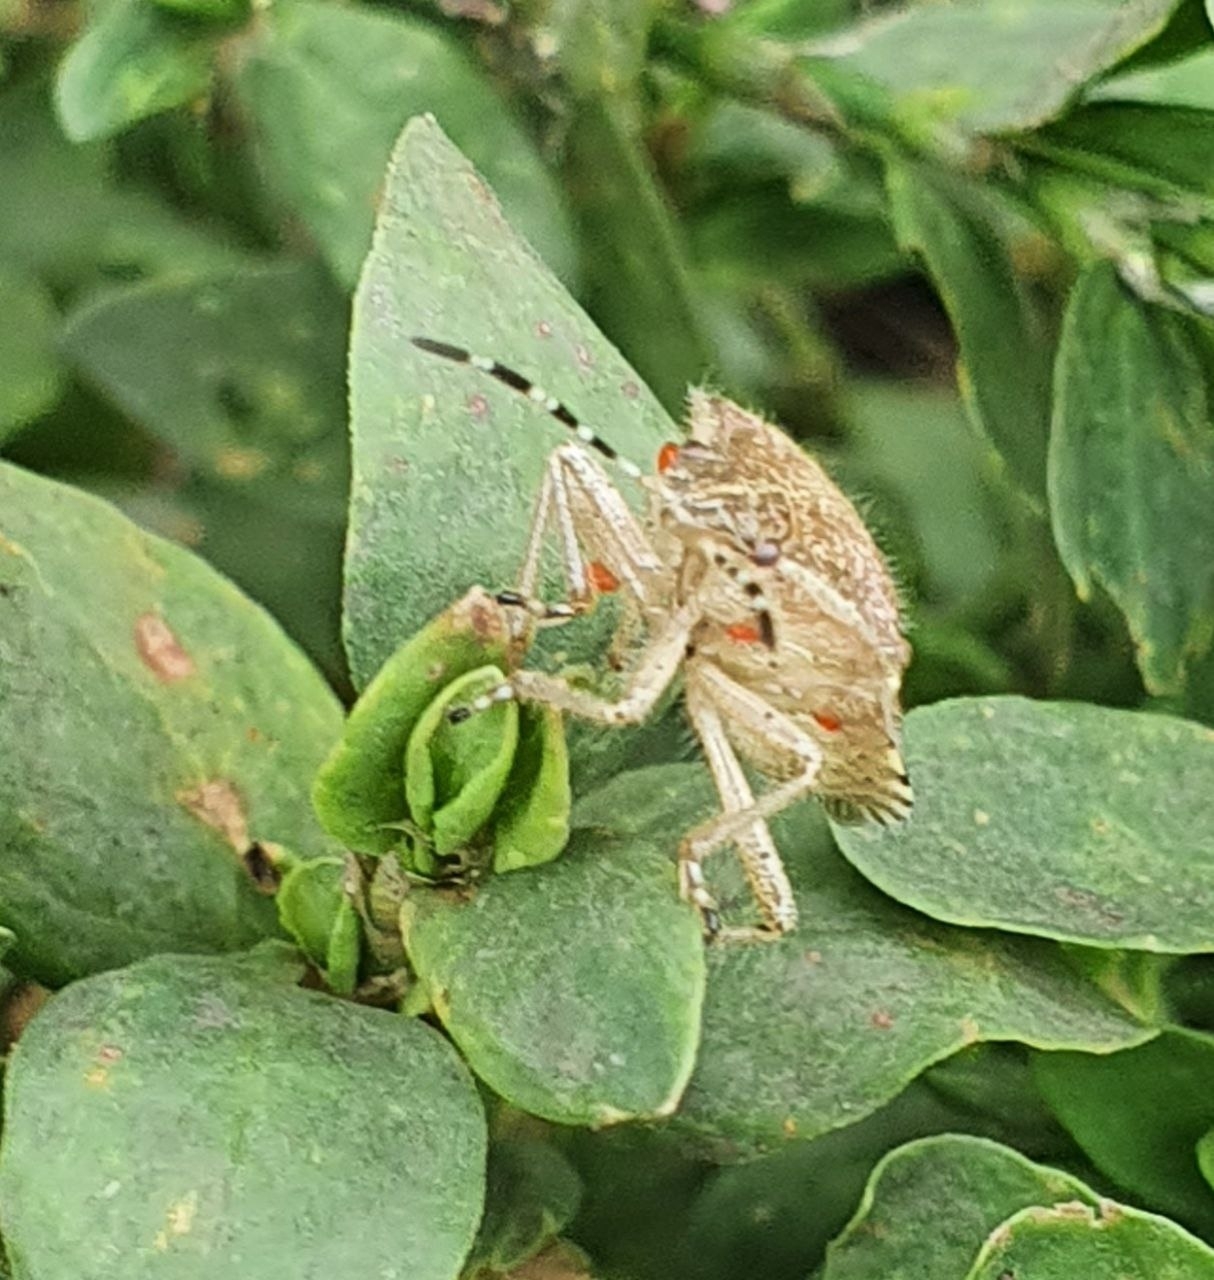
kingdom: Animalia
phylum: Arthropoda
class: Insecta
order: Hemiptera
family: Pentatomidae
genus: Dolycoris
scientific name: Dolycoris baccarum
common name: Sloe bug
